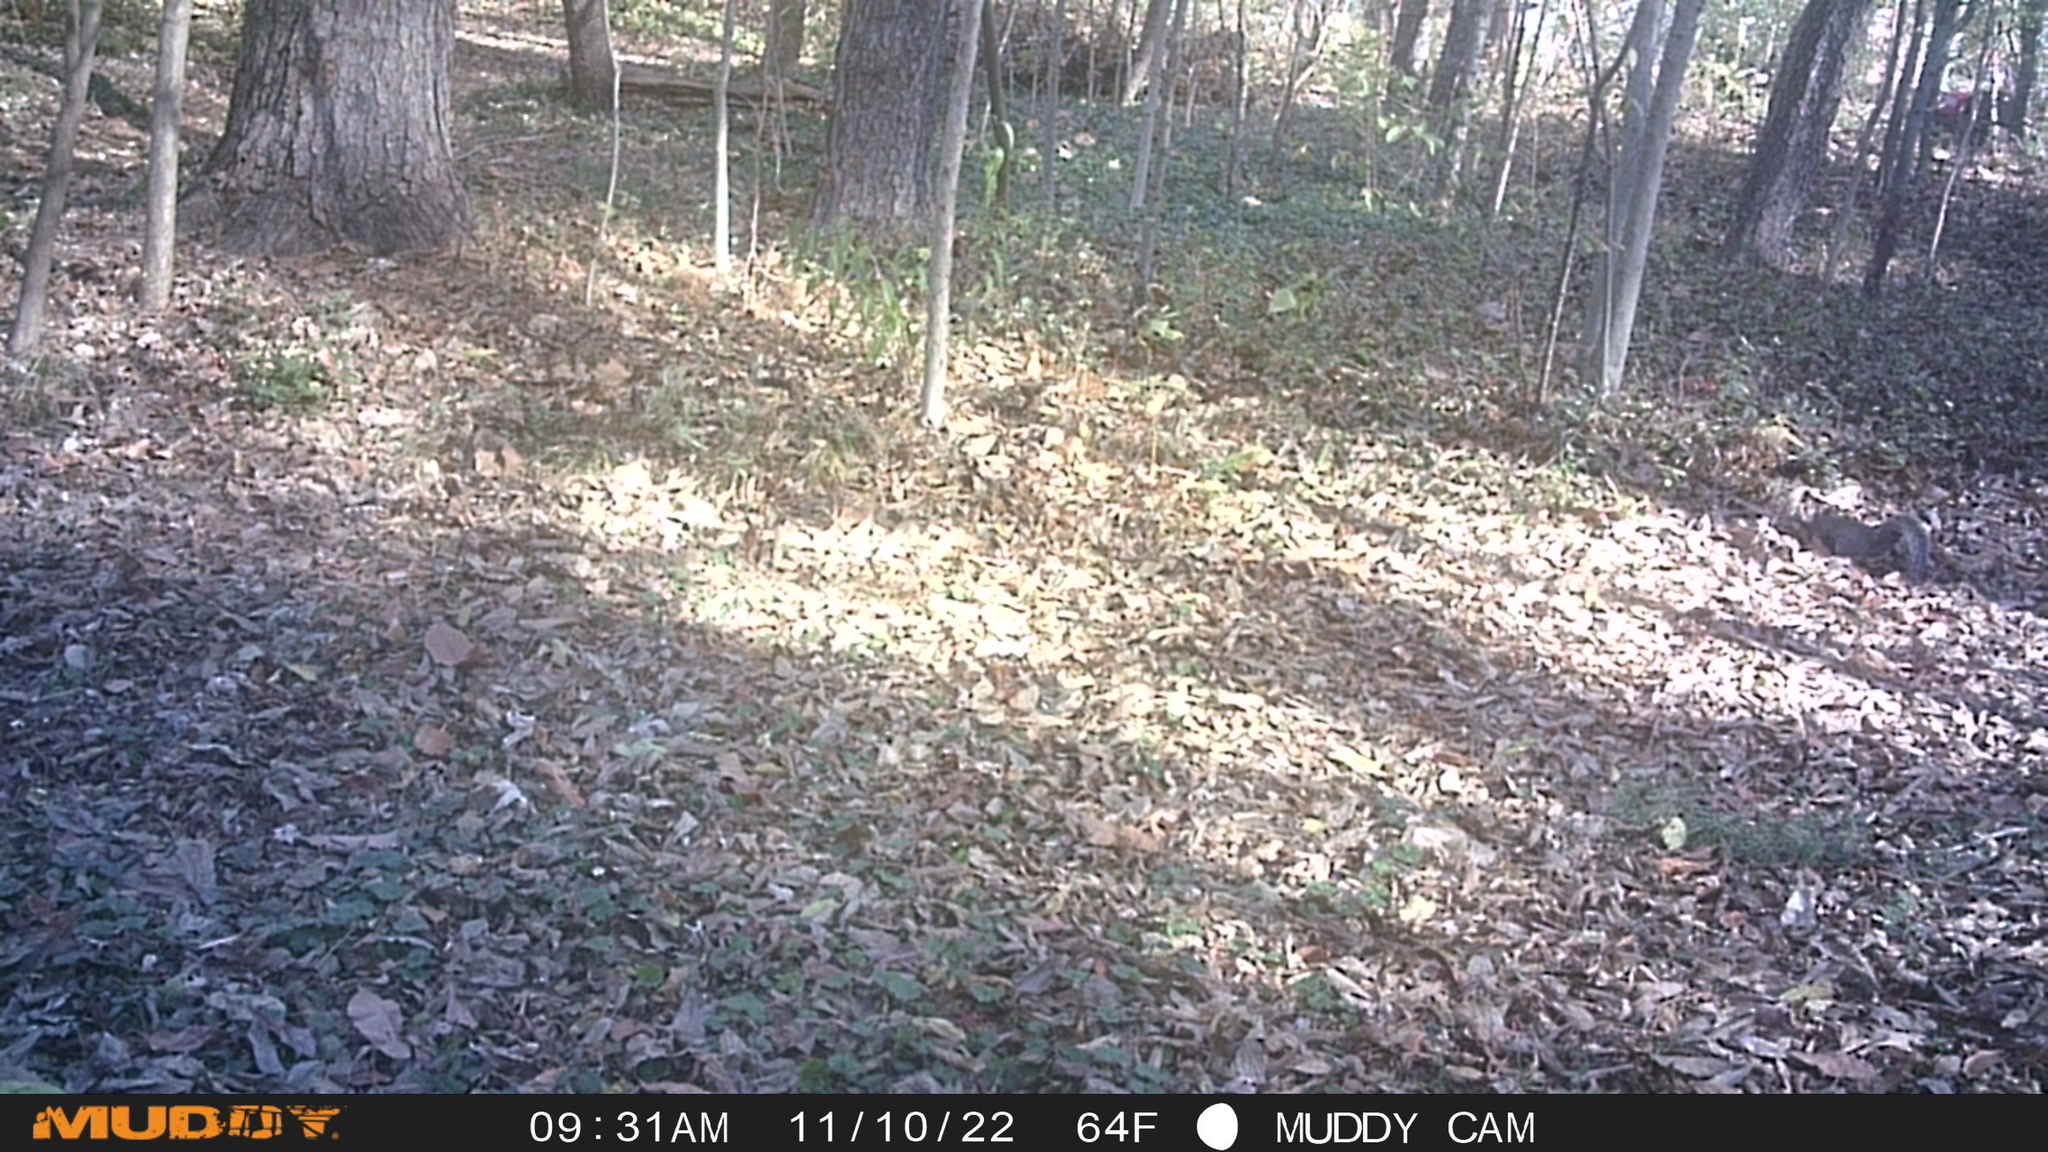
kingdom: Animalia
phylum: Chordata
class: Mammalia
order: Rodentia
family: Sciuridae
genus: Sciurus
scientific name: Sciurus carolinensis
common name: Eastern gray squirrel
